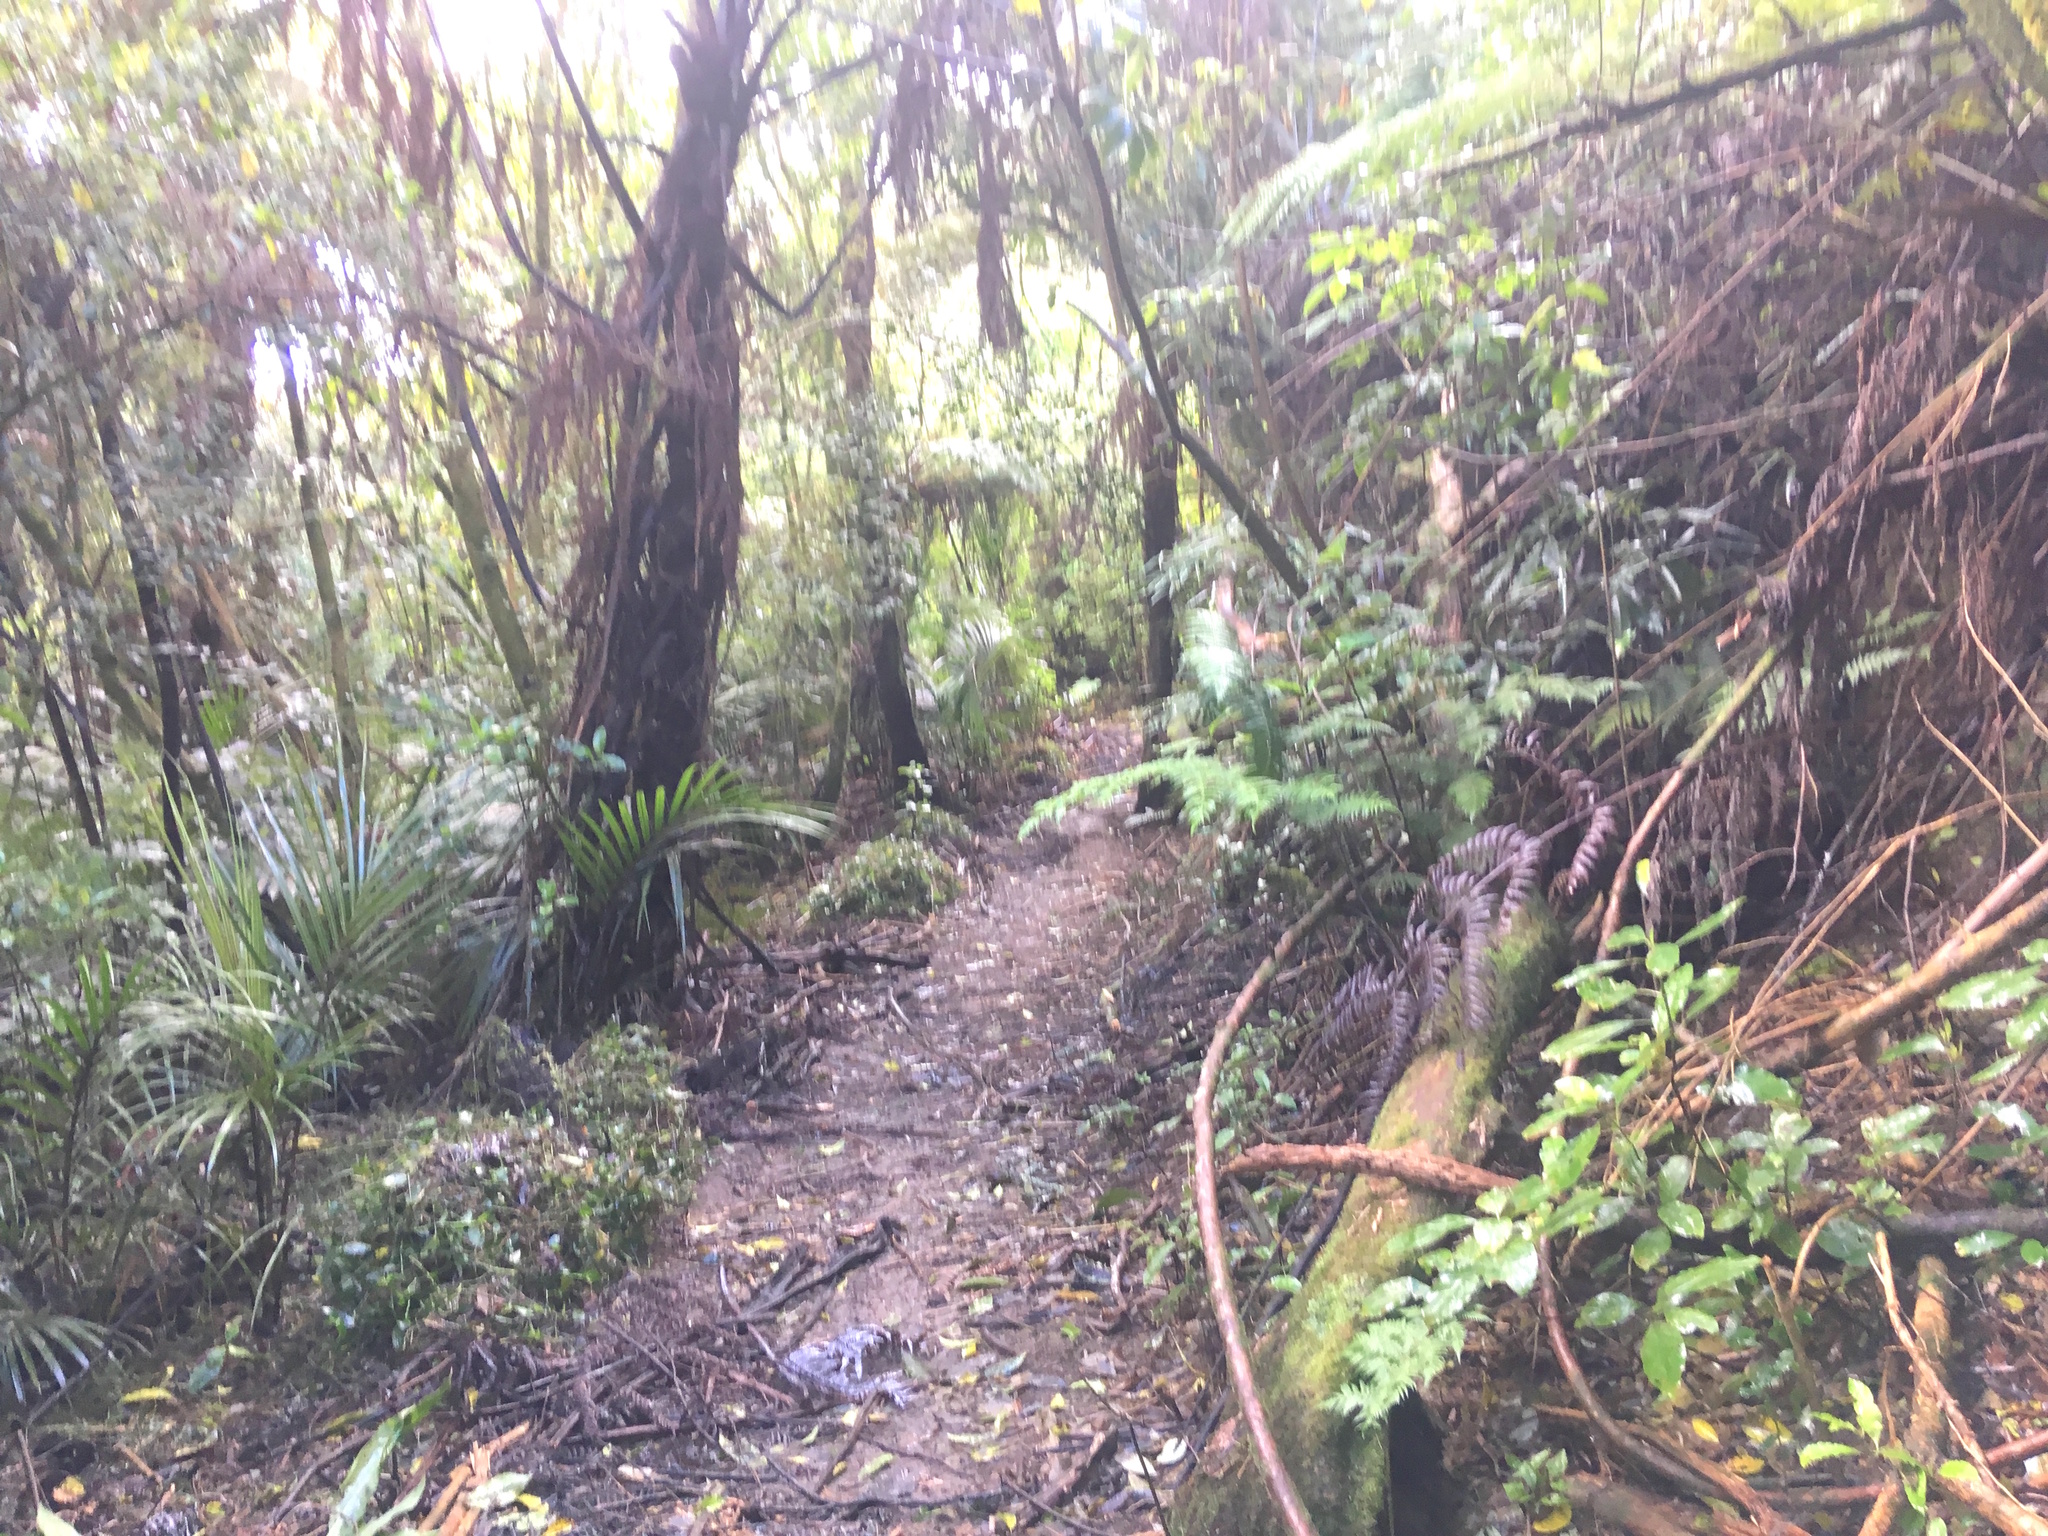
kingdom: Plantae
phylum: Tracheophyta
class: Liliopsida
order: Arecales
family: Arecaceae
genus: Rhopalostylis
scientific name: Rhopalostylis sapida
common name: Feather-duster palm
